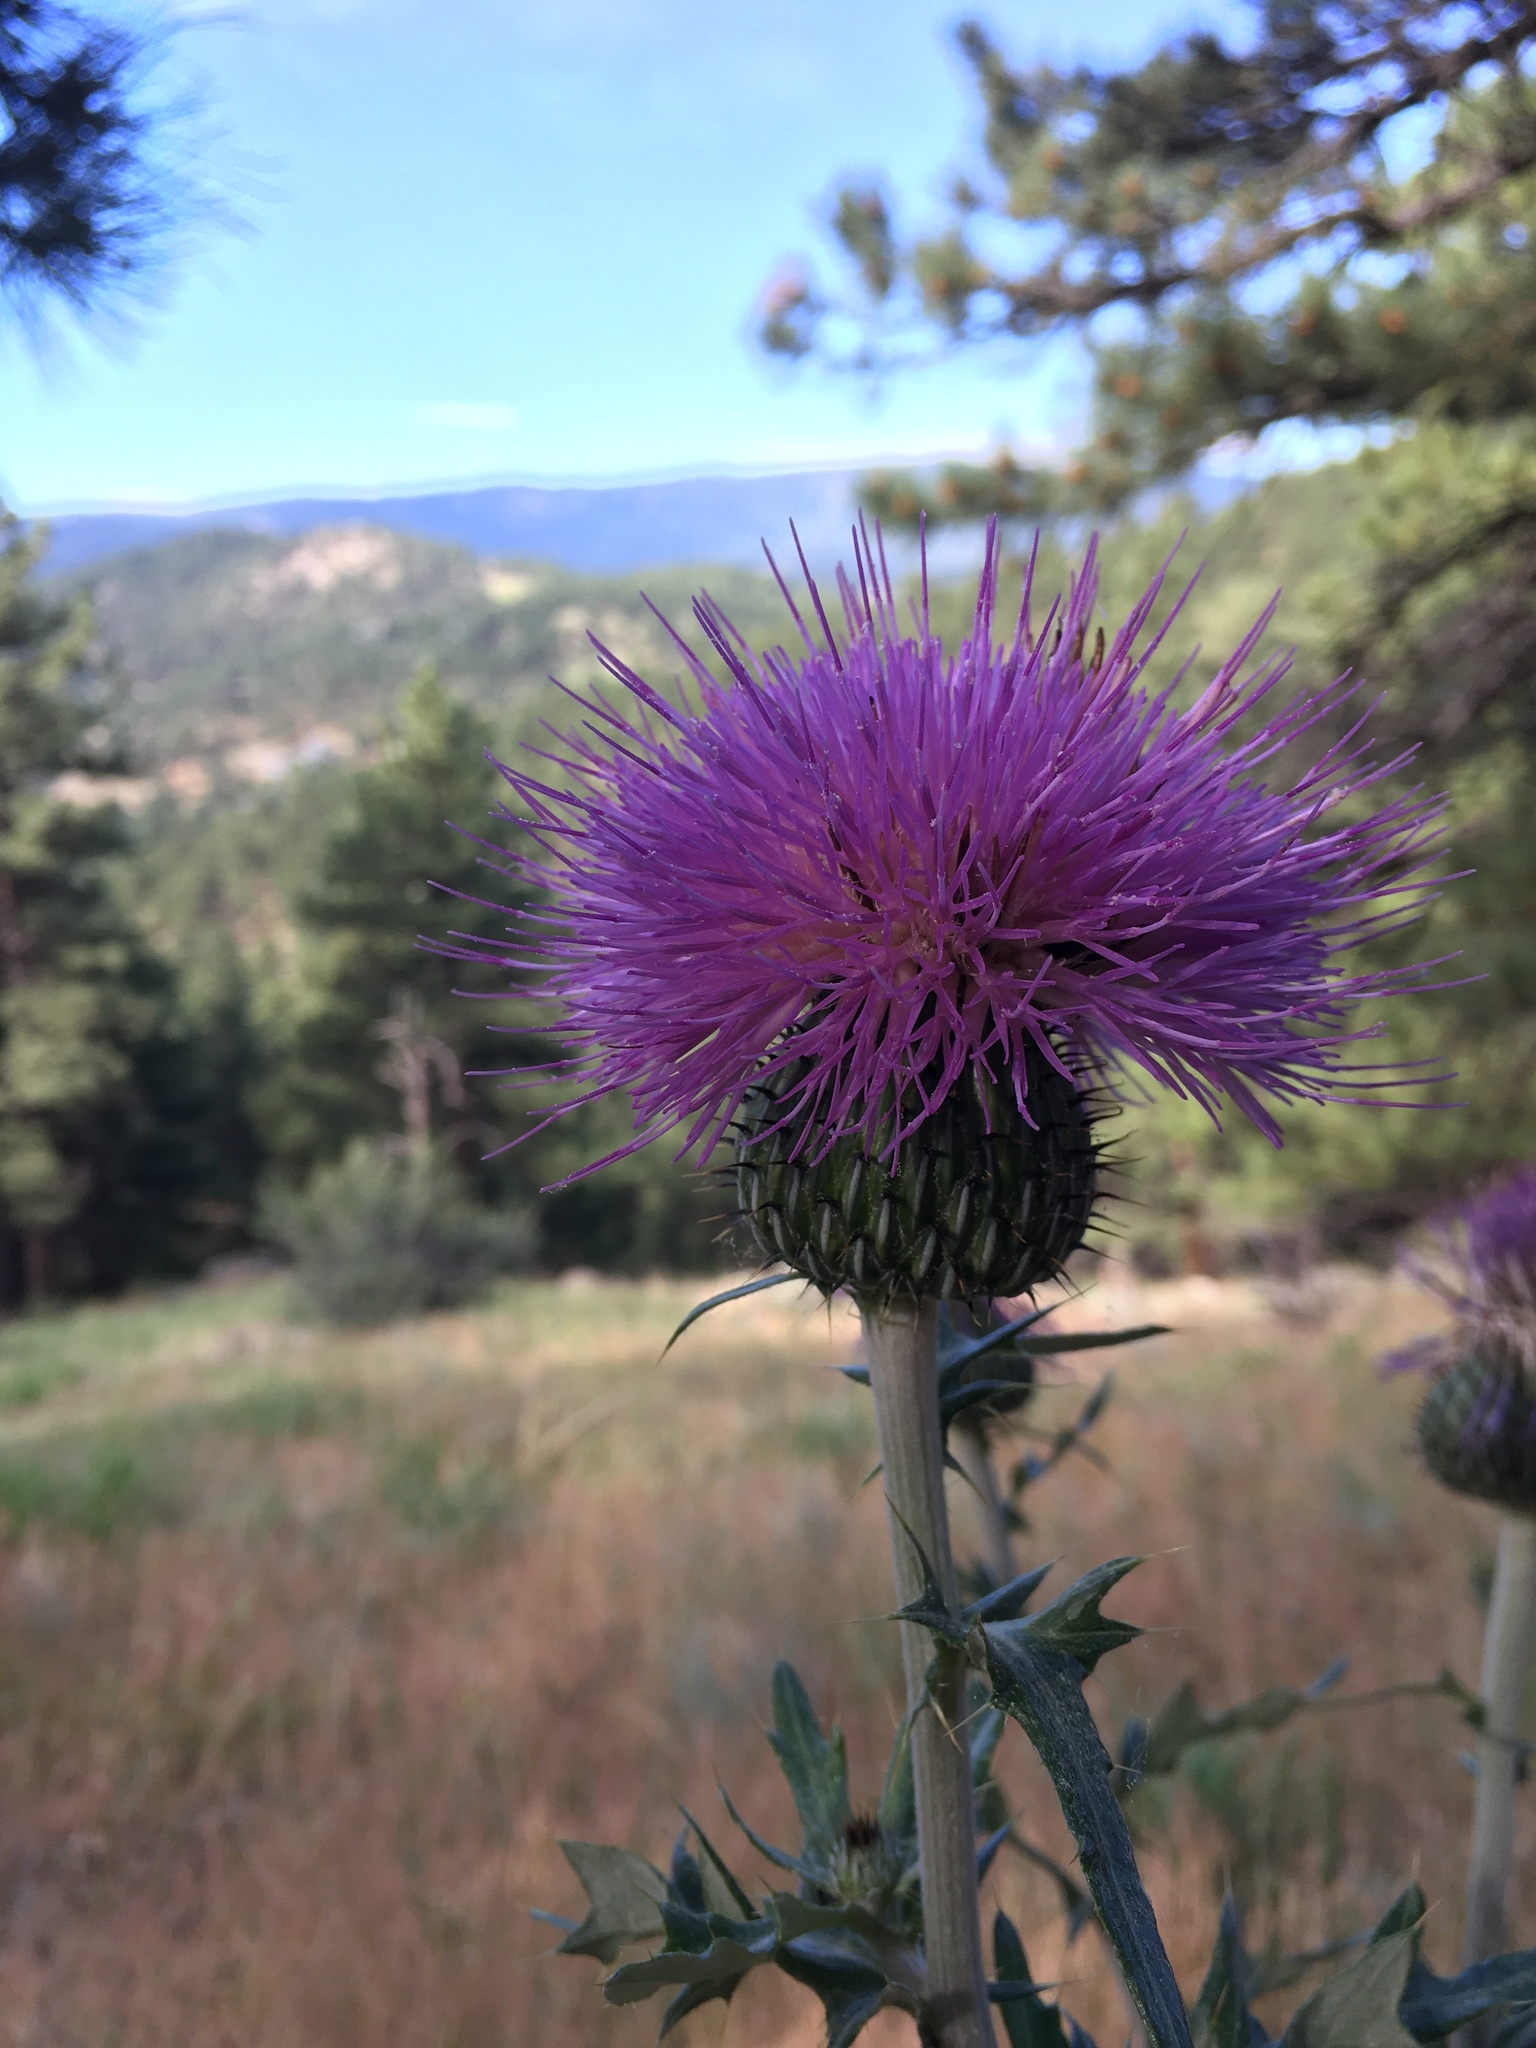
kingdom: Plantae
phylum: Tracheophyta
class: Magnoliopsida
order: Asterales
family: Asteraceae
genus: Cirsium
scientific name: Cirsium undulatum
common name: Pasture thistle
